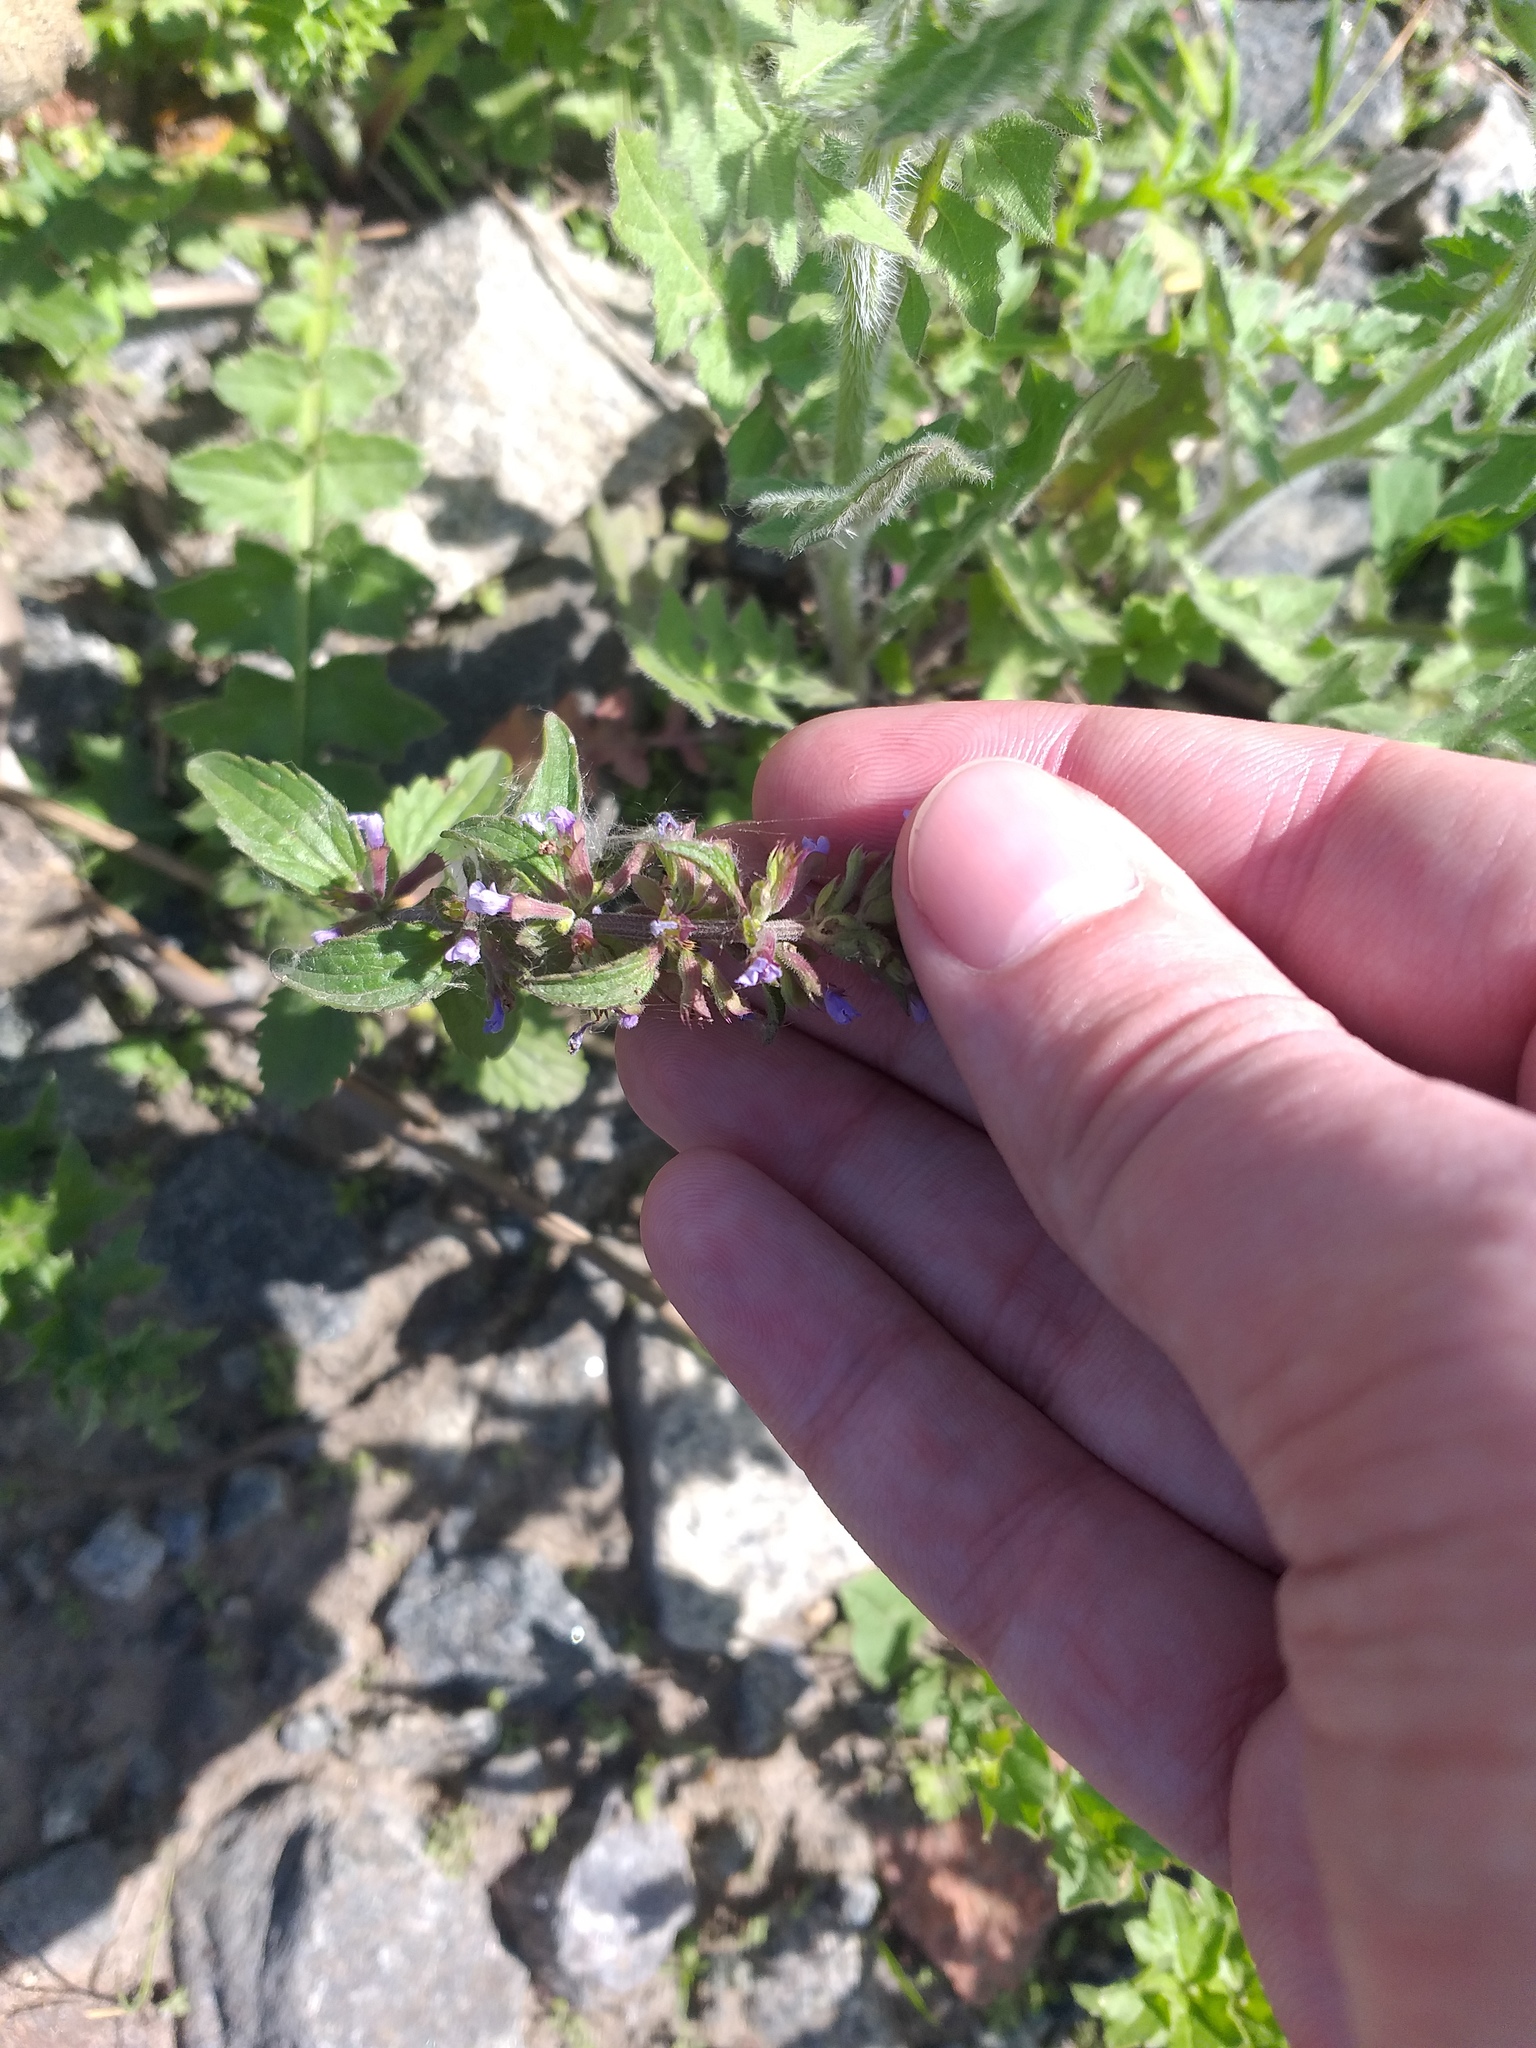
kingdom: Plantae
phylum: Tracheophyta
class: Magnoliopsida
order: Lamiales
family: Lamiaceae
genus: Dracocephalum
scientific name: Dracocephalum thymiflorum
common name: Thymeleaf dragonhead
